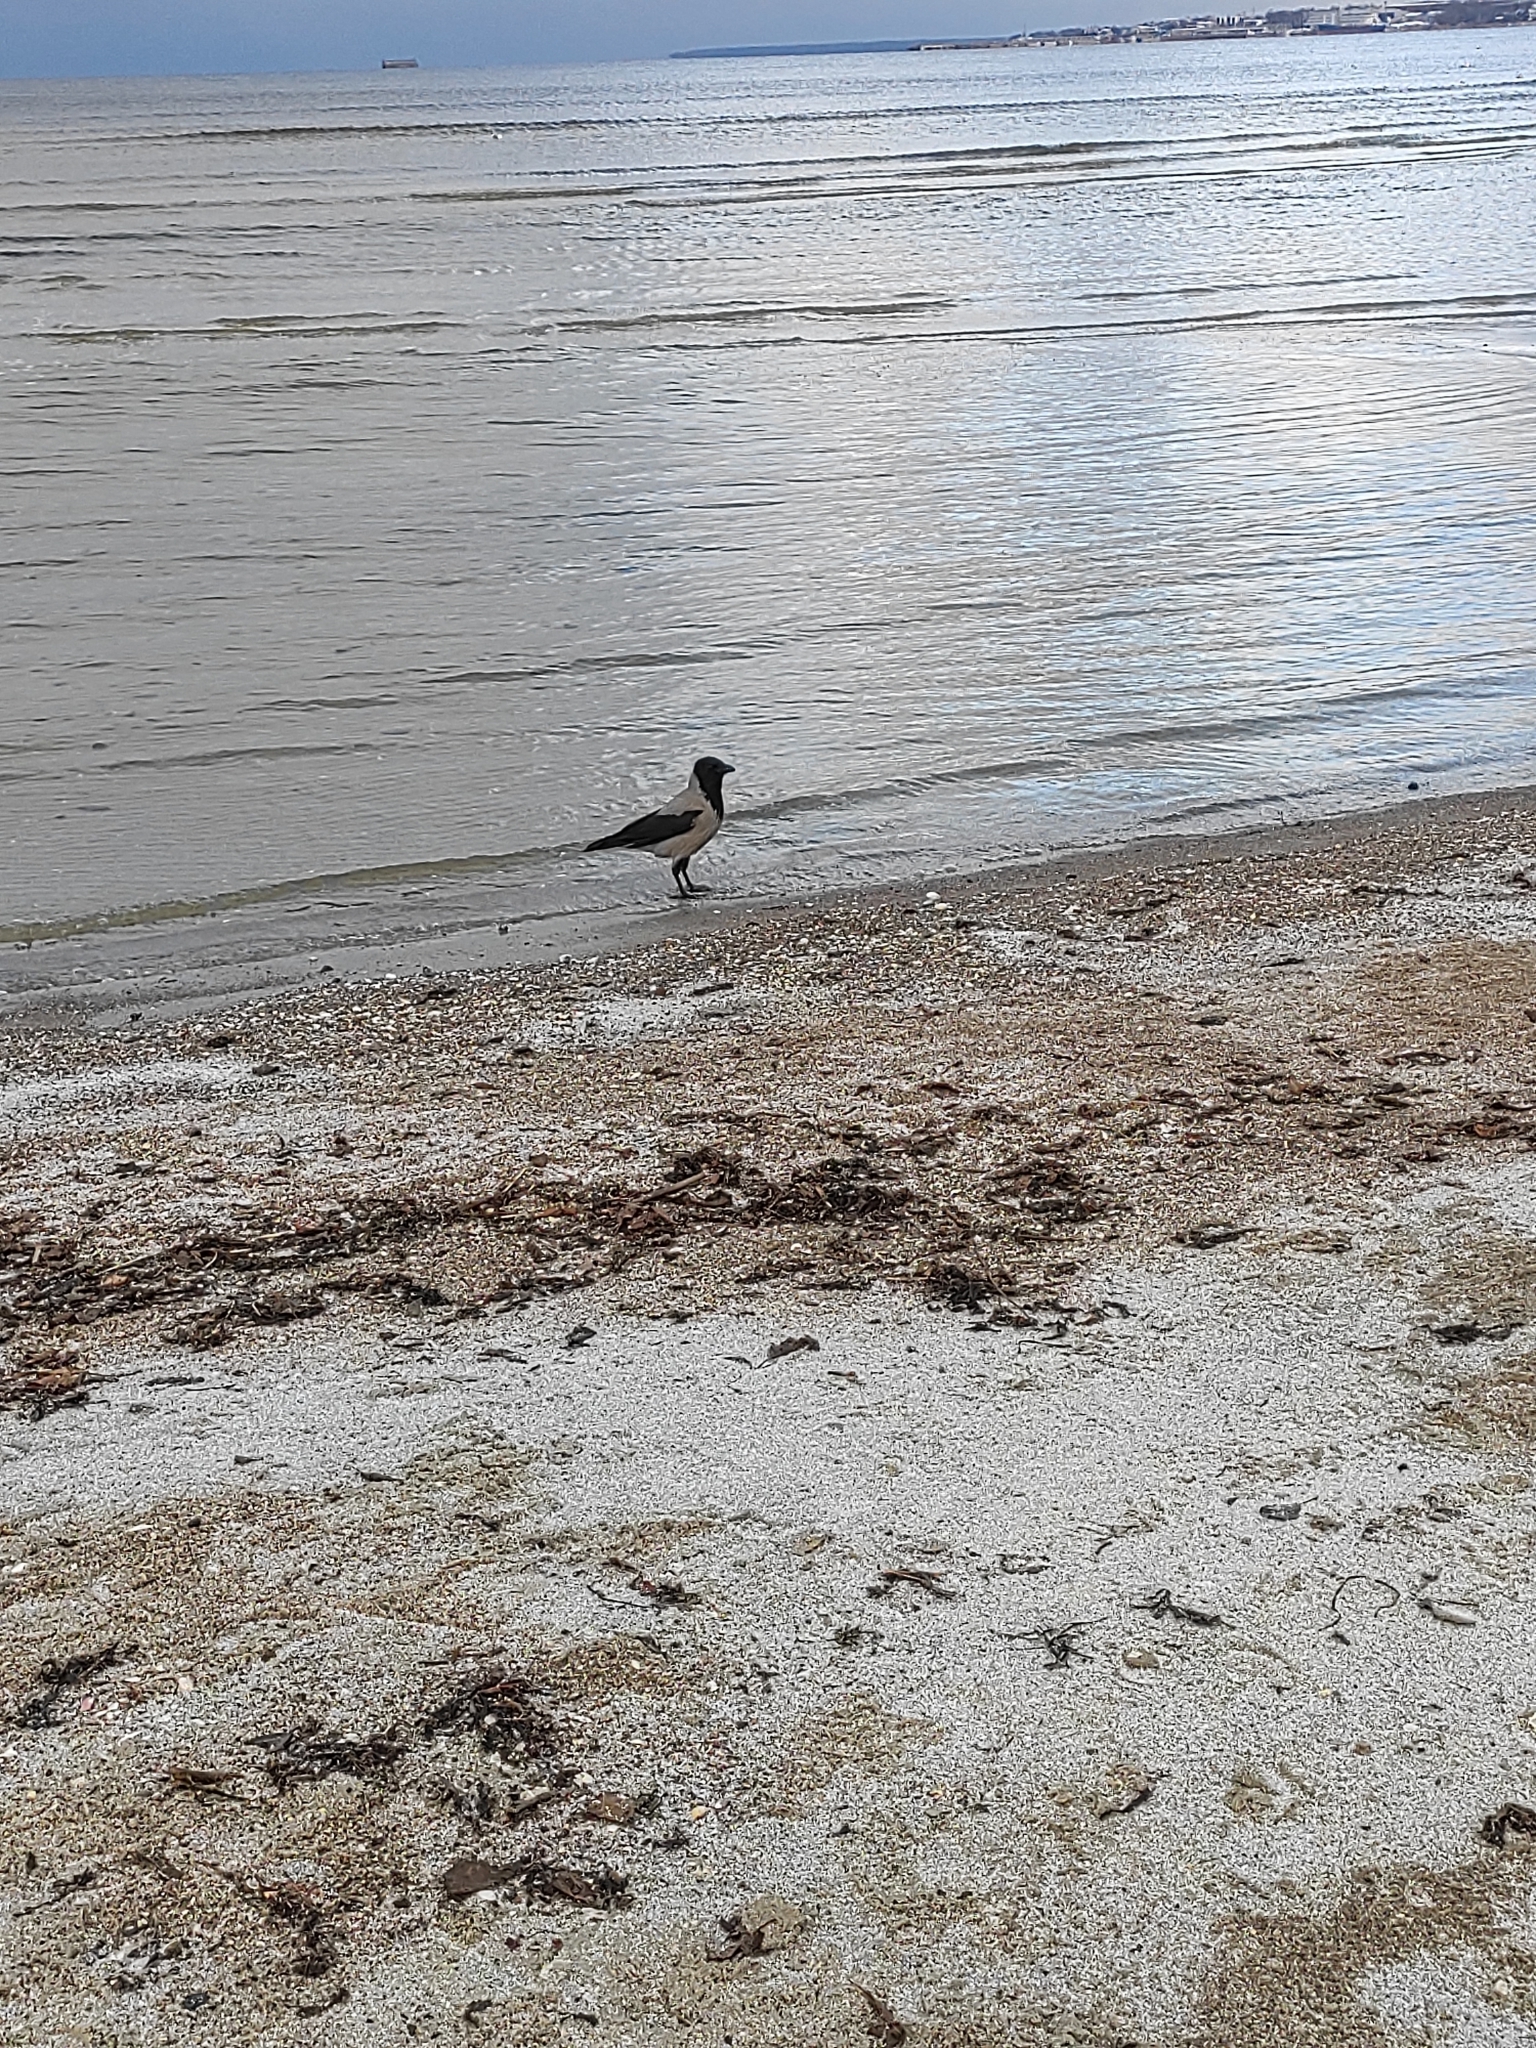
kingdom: Animalia
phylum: Chordata
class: Aves
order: Passeriformes
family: Corvidae
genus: Corvus
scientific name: Corvus cornix
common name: Hooded crow
